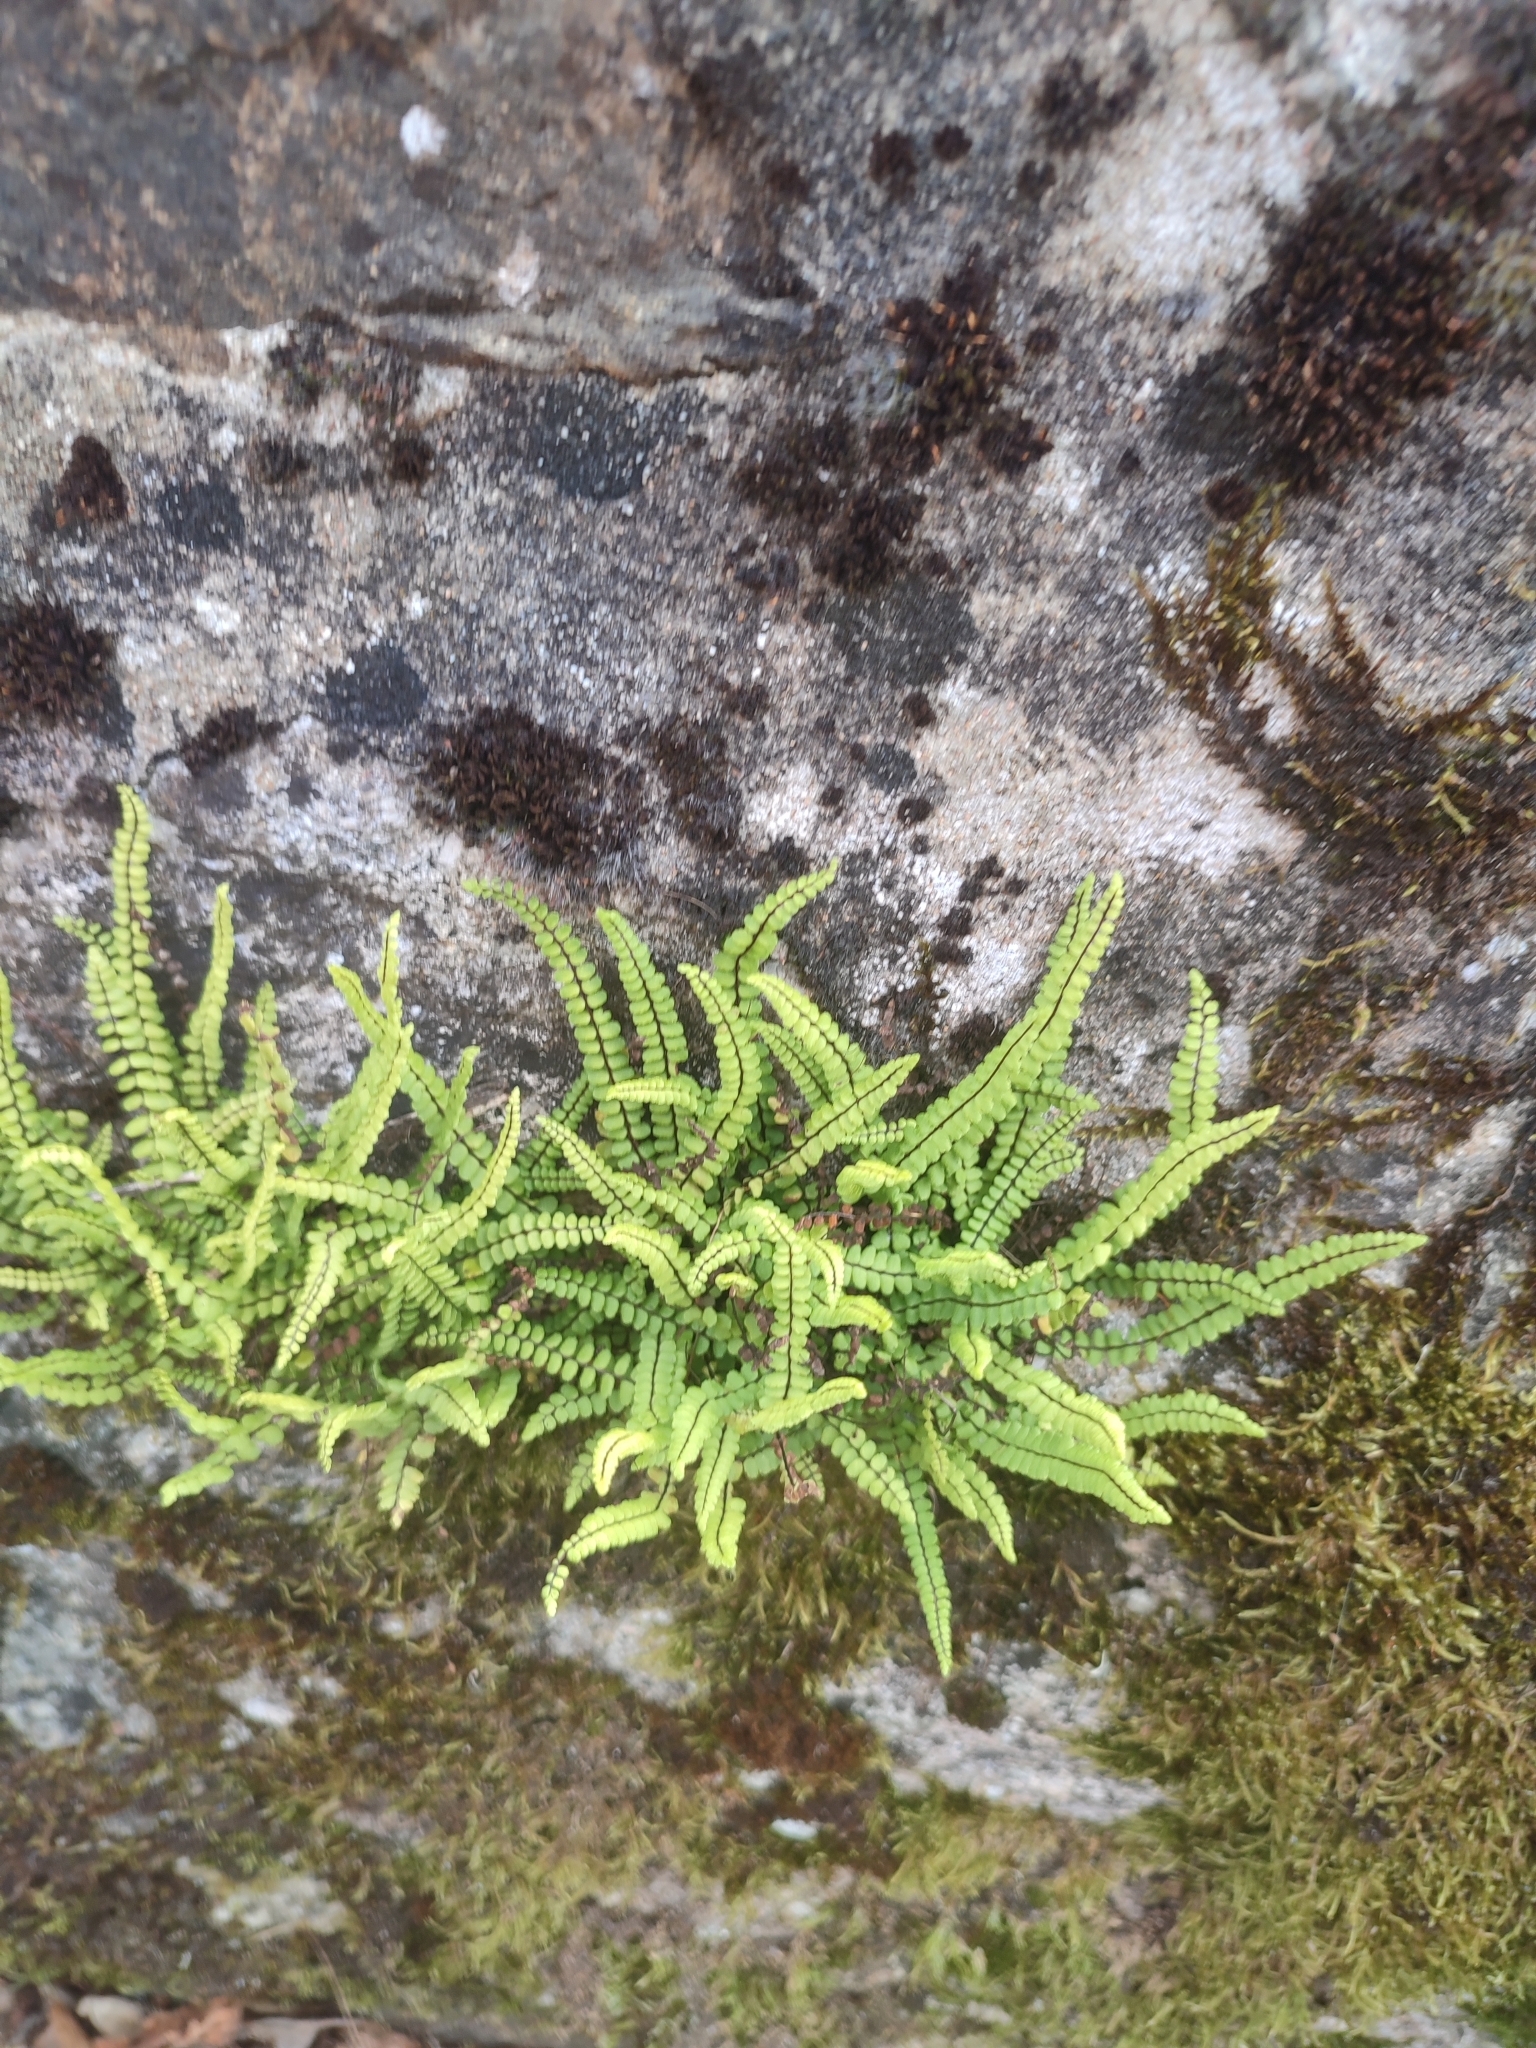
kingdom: Plantae
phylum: Tracheophyta
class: Polypodiopsida
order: Polypodiales
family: Aspleniaceae
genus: Asplenium
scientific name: Asplenium trichomanes
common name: Maidenhair spleenwort
